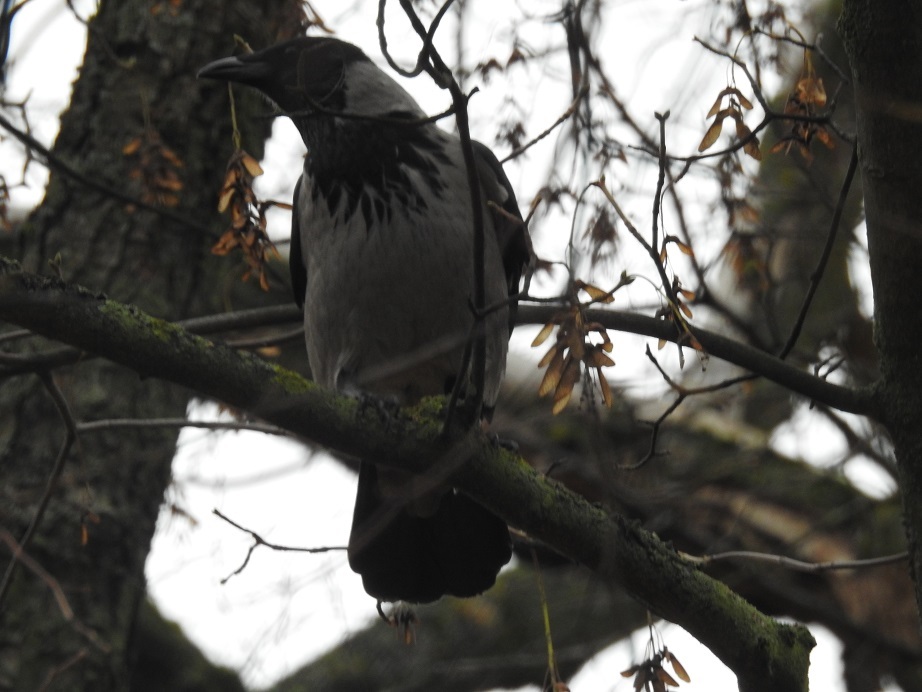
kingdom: Animalia
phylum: Chordata
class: Aves
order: Passeriformes
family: Corvidae
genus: Corvus
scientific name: Corvus cornix
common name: Hooded crow
